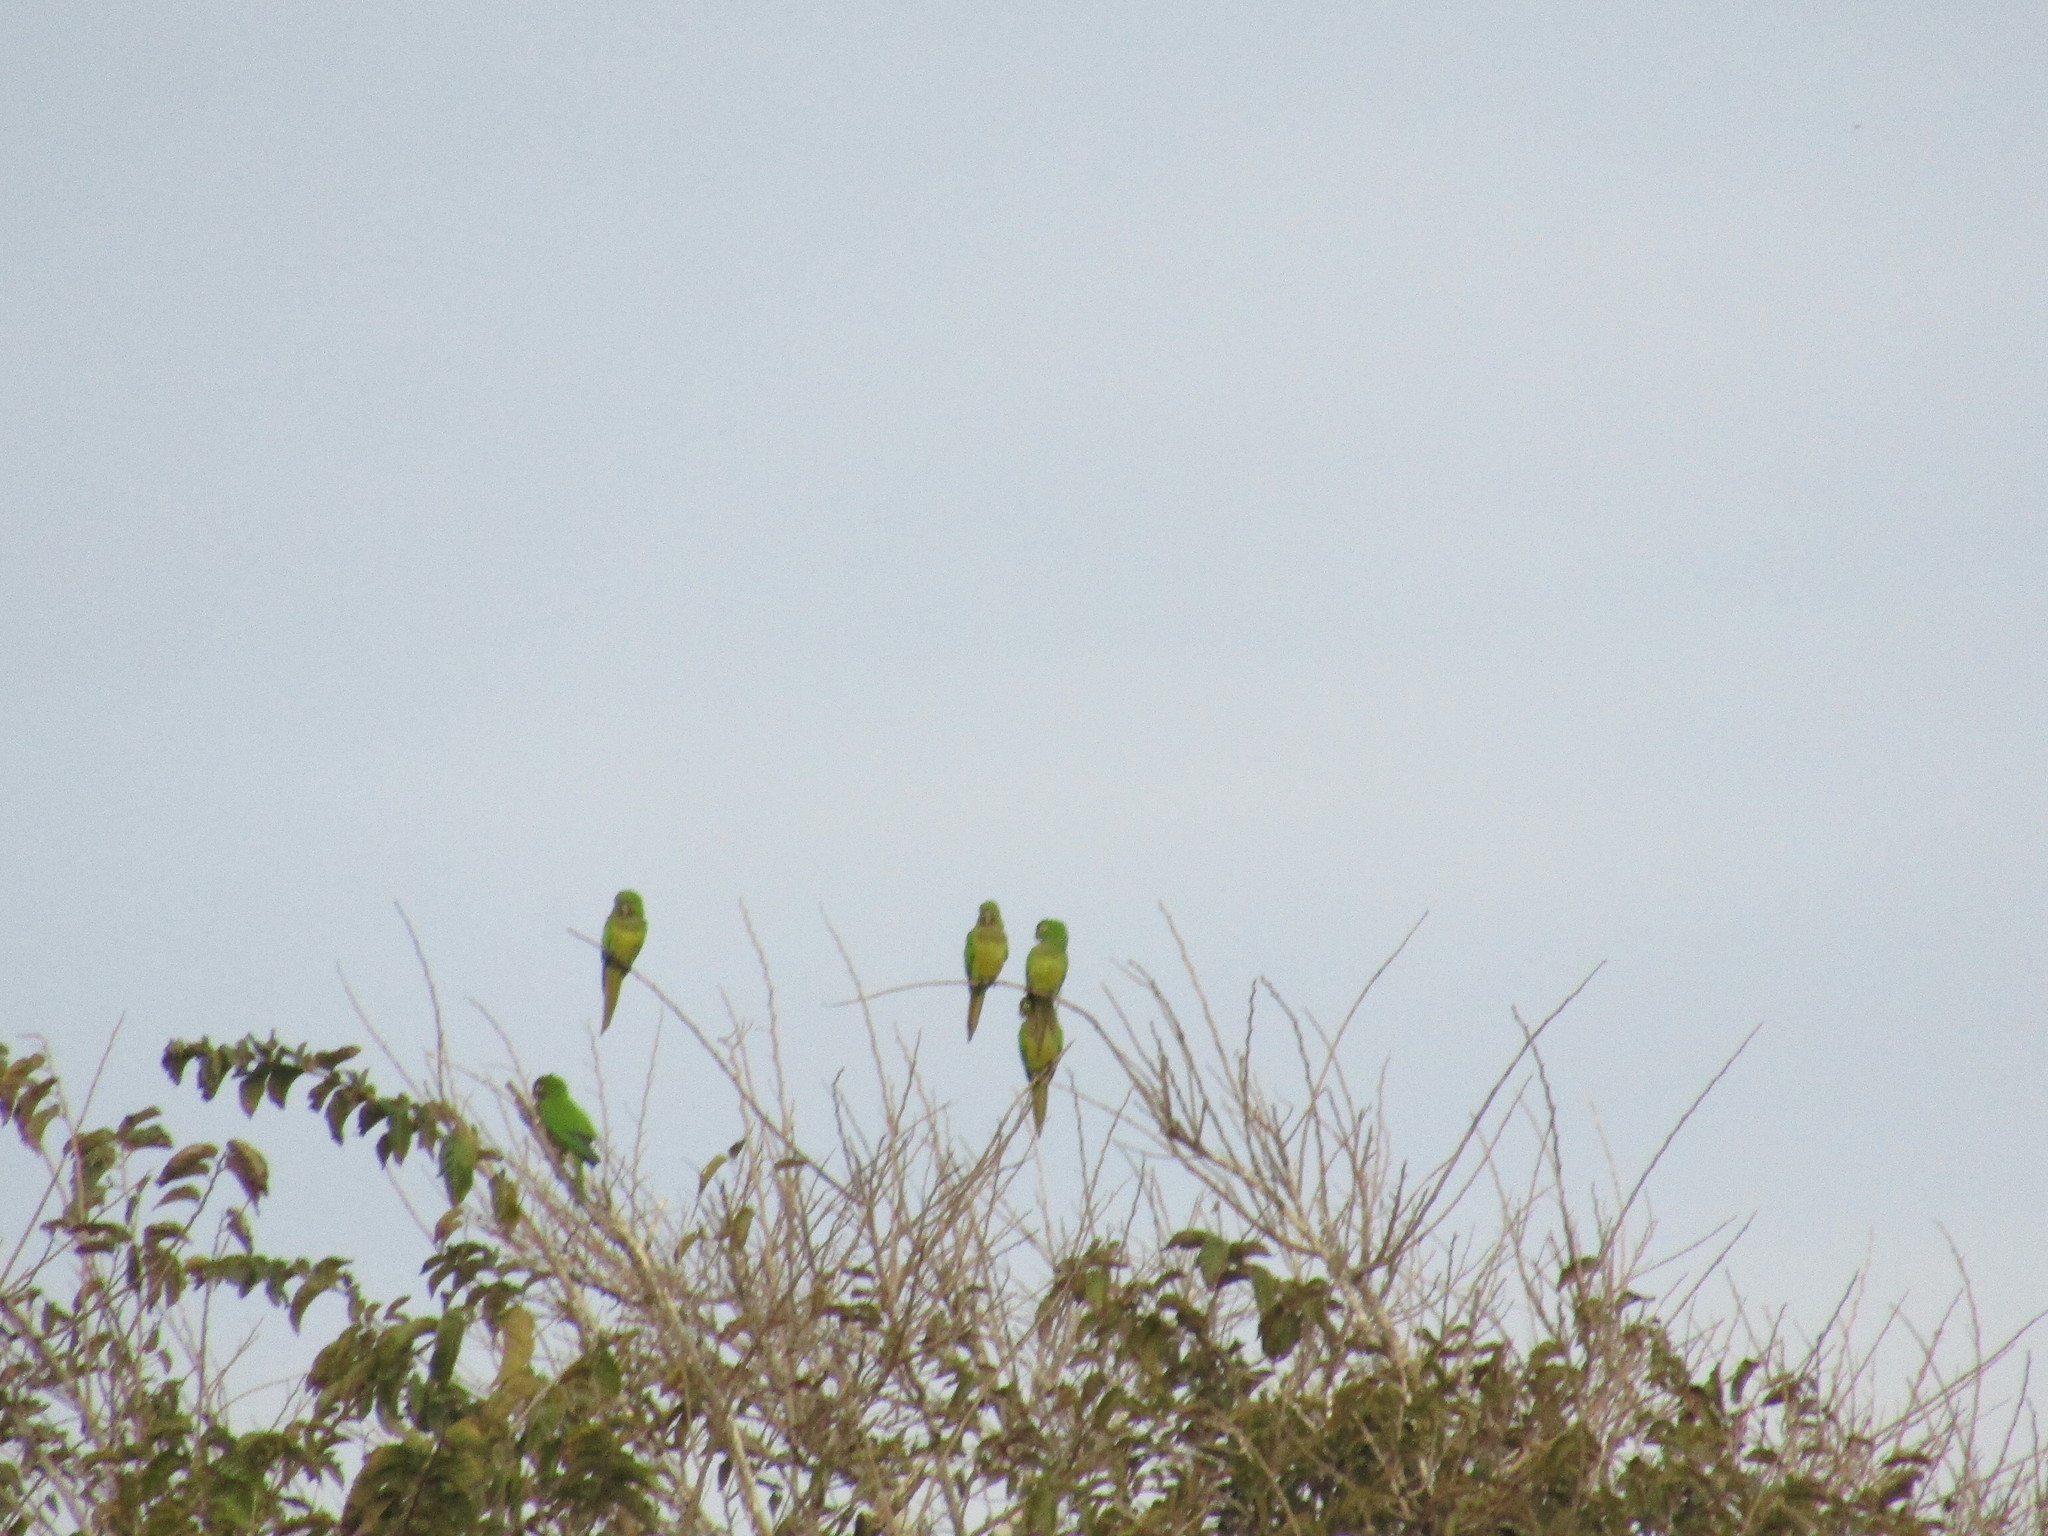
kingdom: Animalia
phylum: Chordata
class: Aves
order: Psittaciformes
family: Psittacidae
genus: Aratinga
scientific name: Aratinga nana
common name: Olive-throated parakeet
